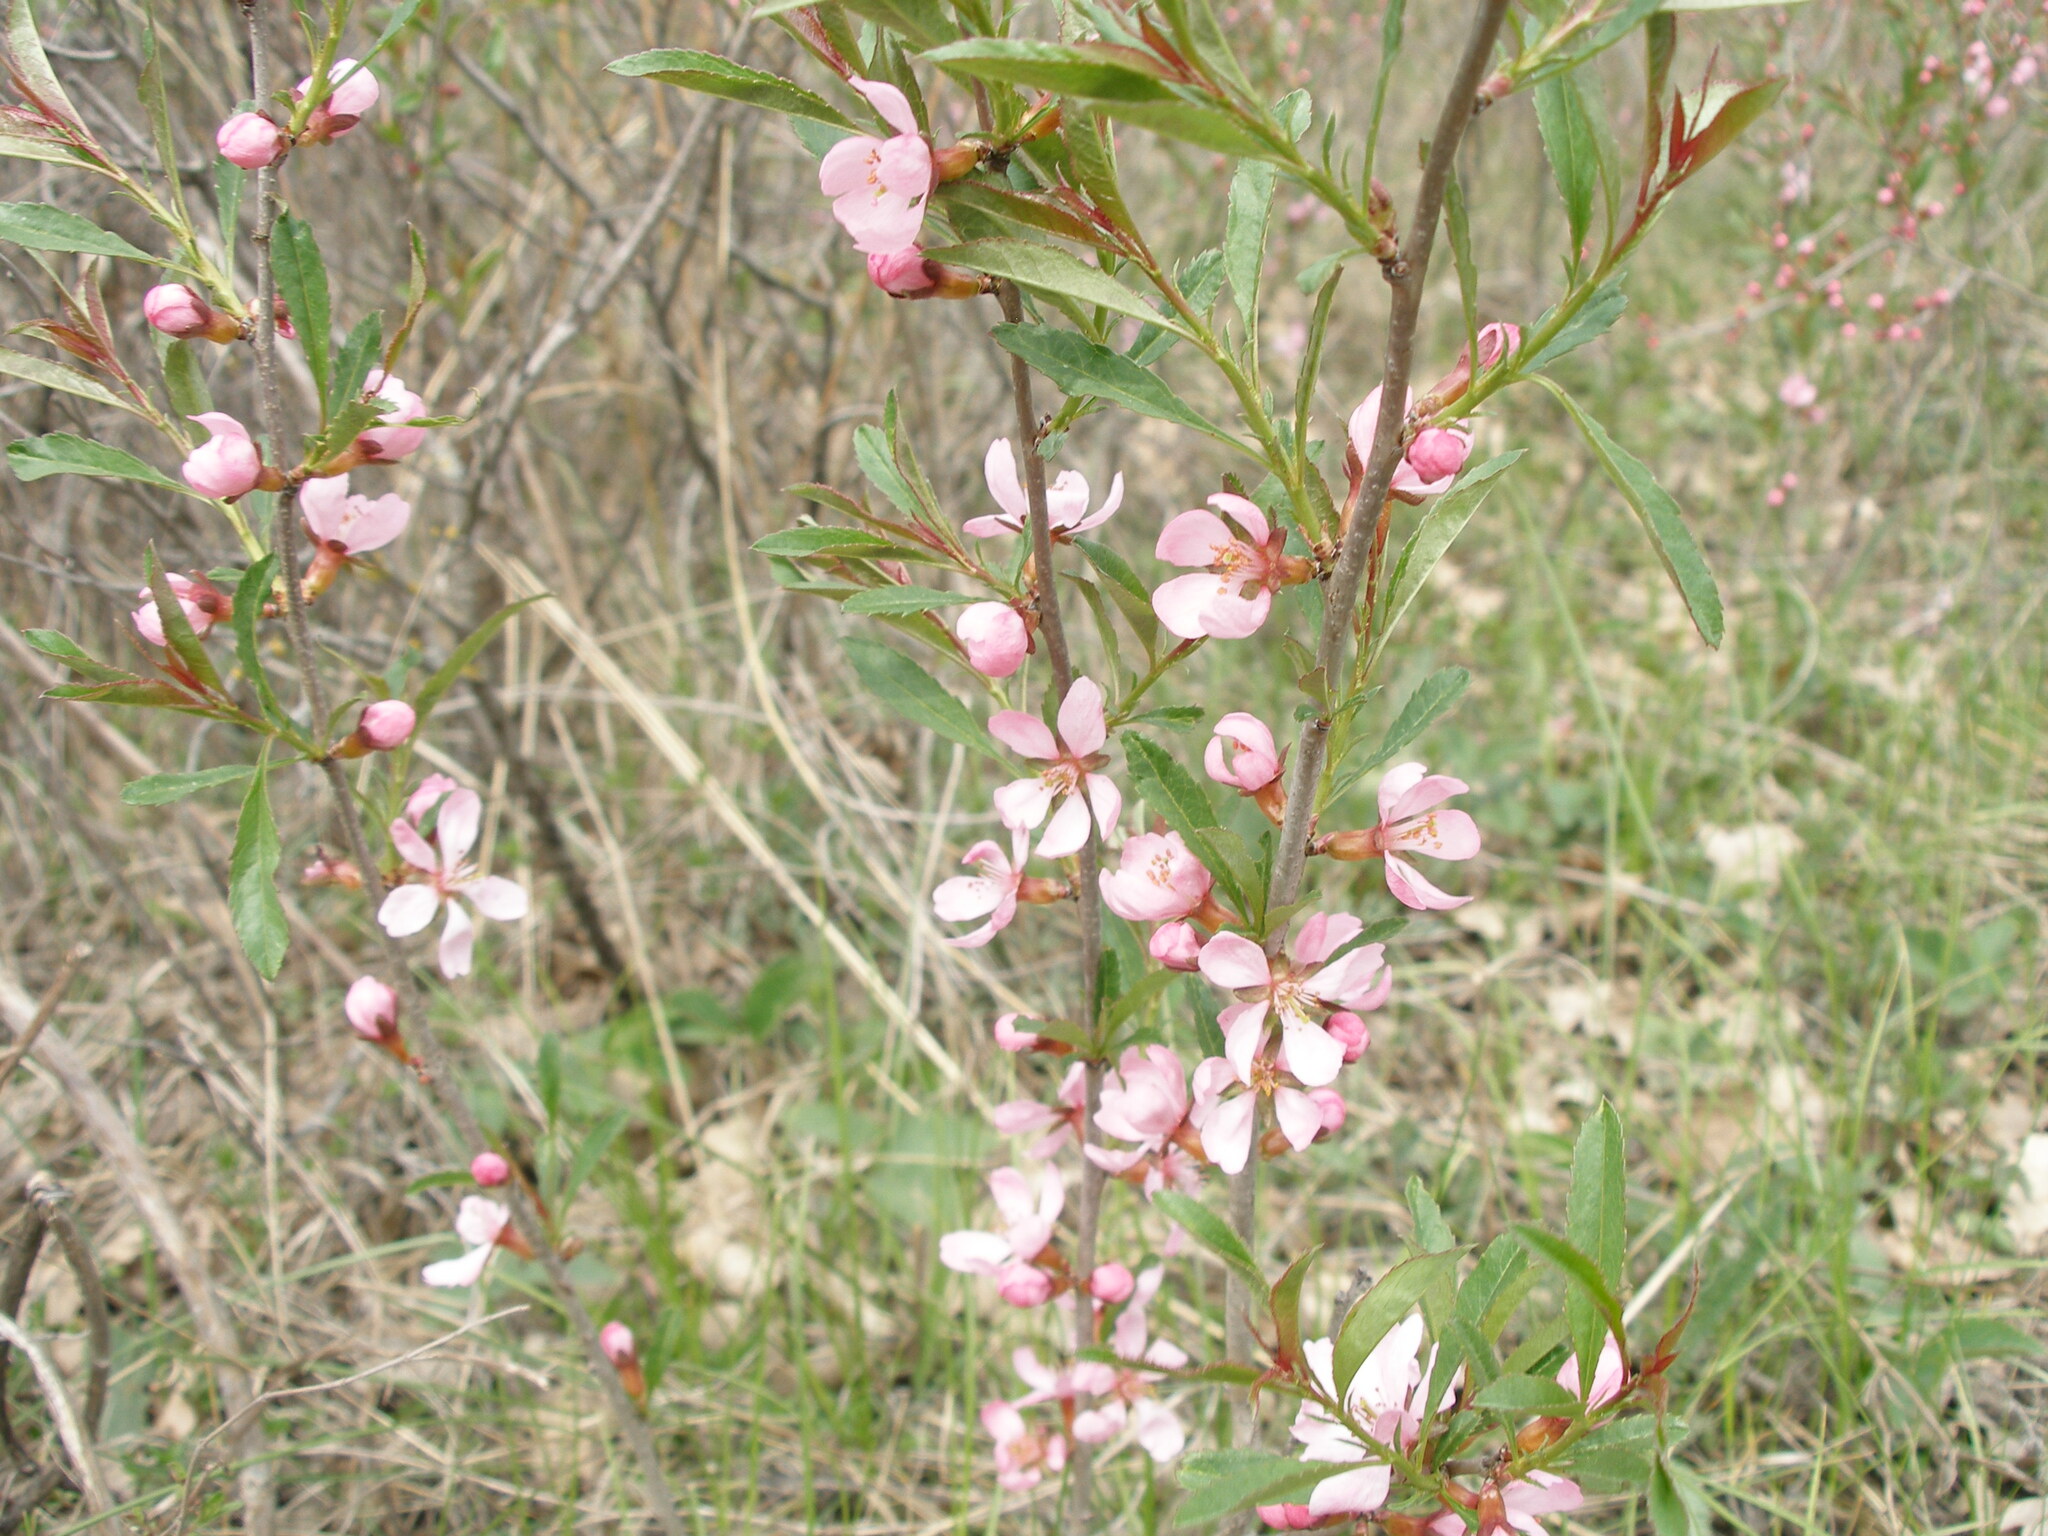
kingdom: Plantae
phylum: Tracheophyta
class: Magnoliopsida
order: Rosales
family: Rosaceae
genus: Prunus
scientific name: Prunus tenella
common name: Dwarf russian almond
